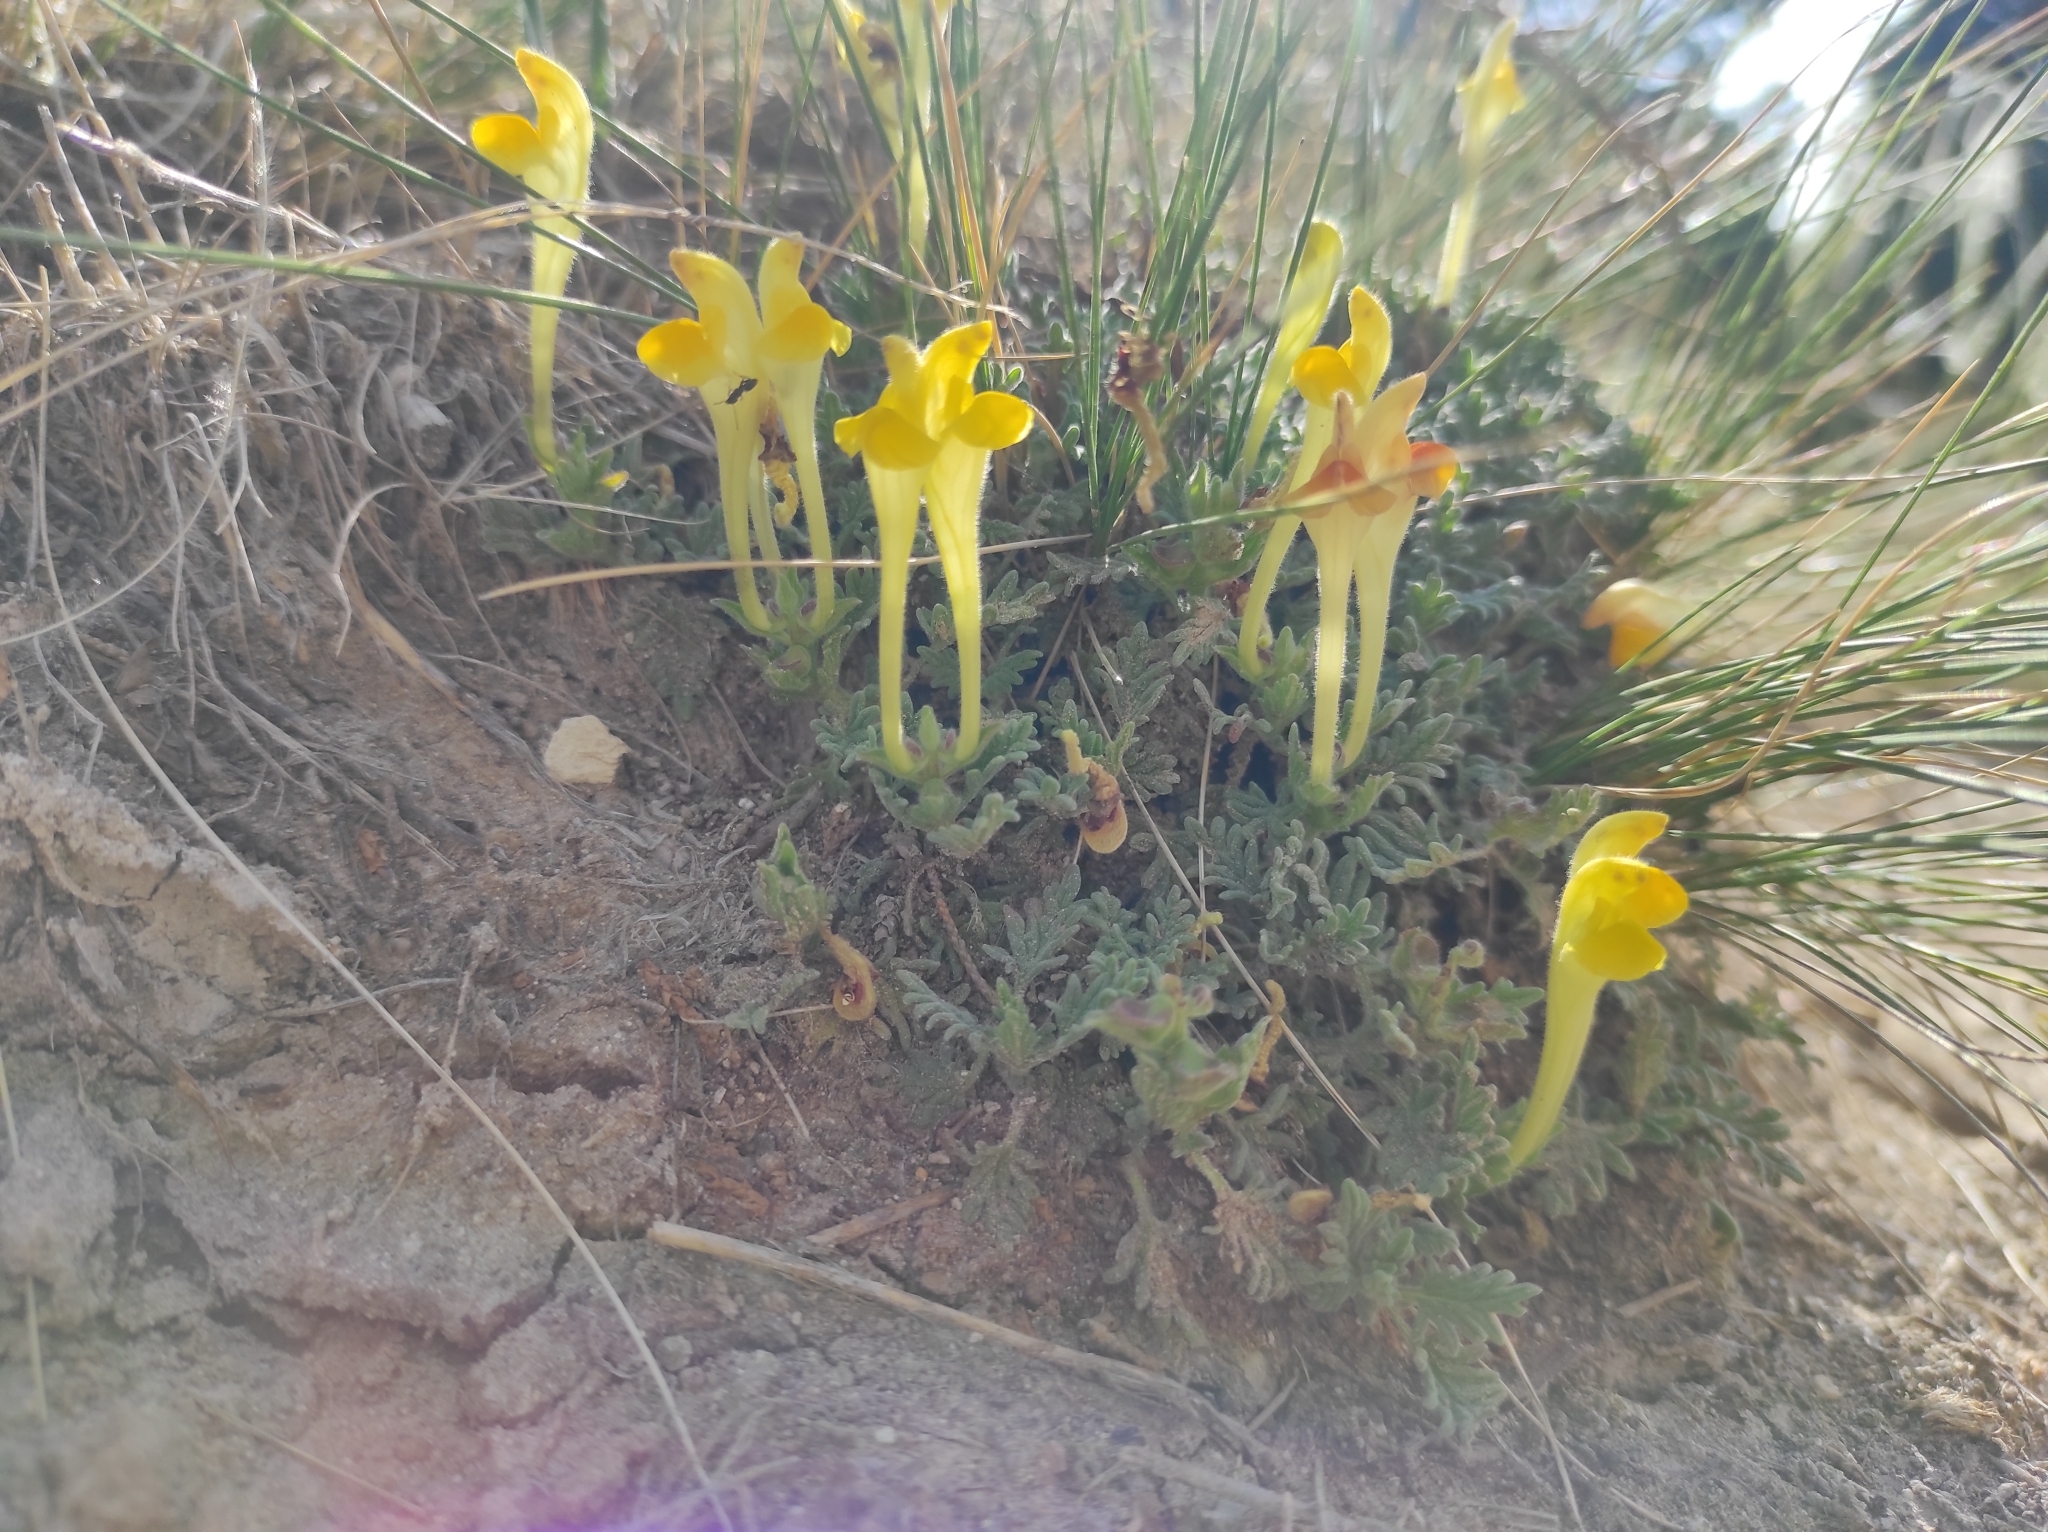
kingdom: Plantae
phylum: Tracheophyta
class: Magnoliopsida
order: Lamiales
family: Lamiaceae
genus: Scutellaria
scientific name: Scutellaria orientalis
